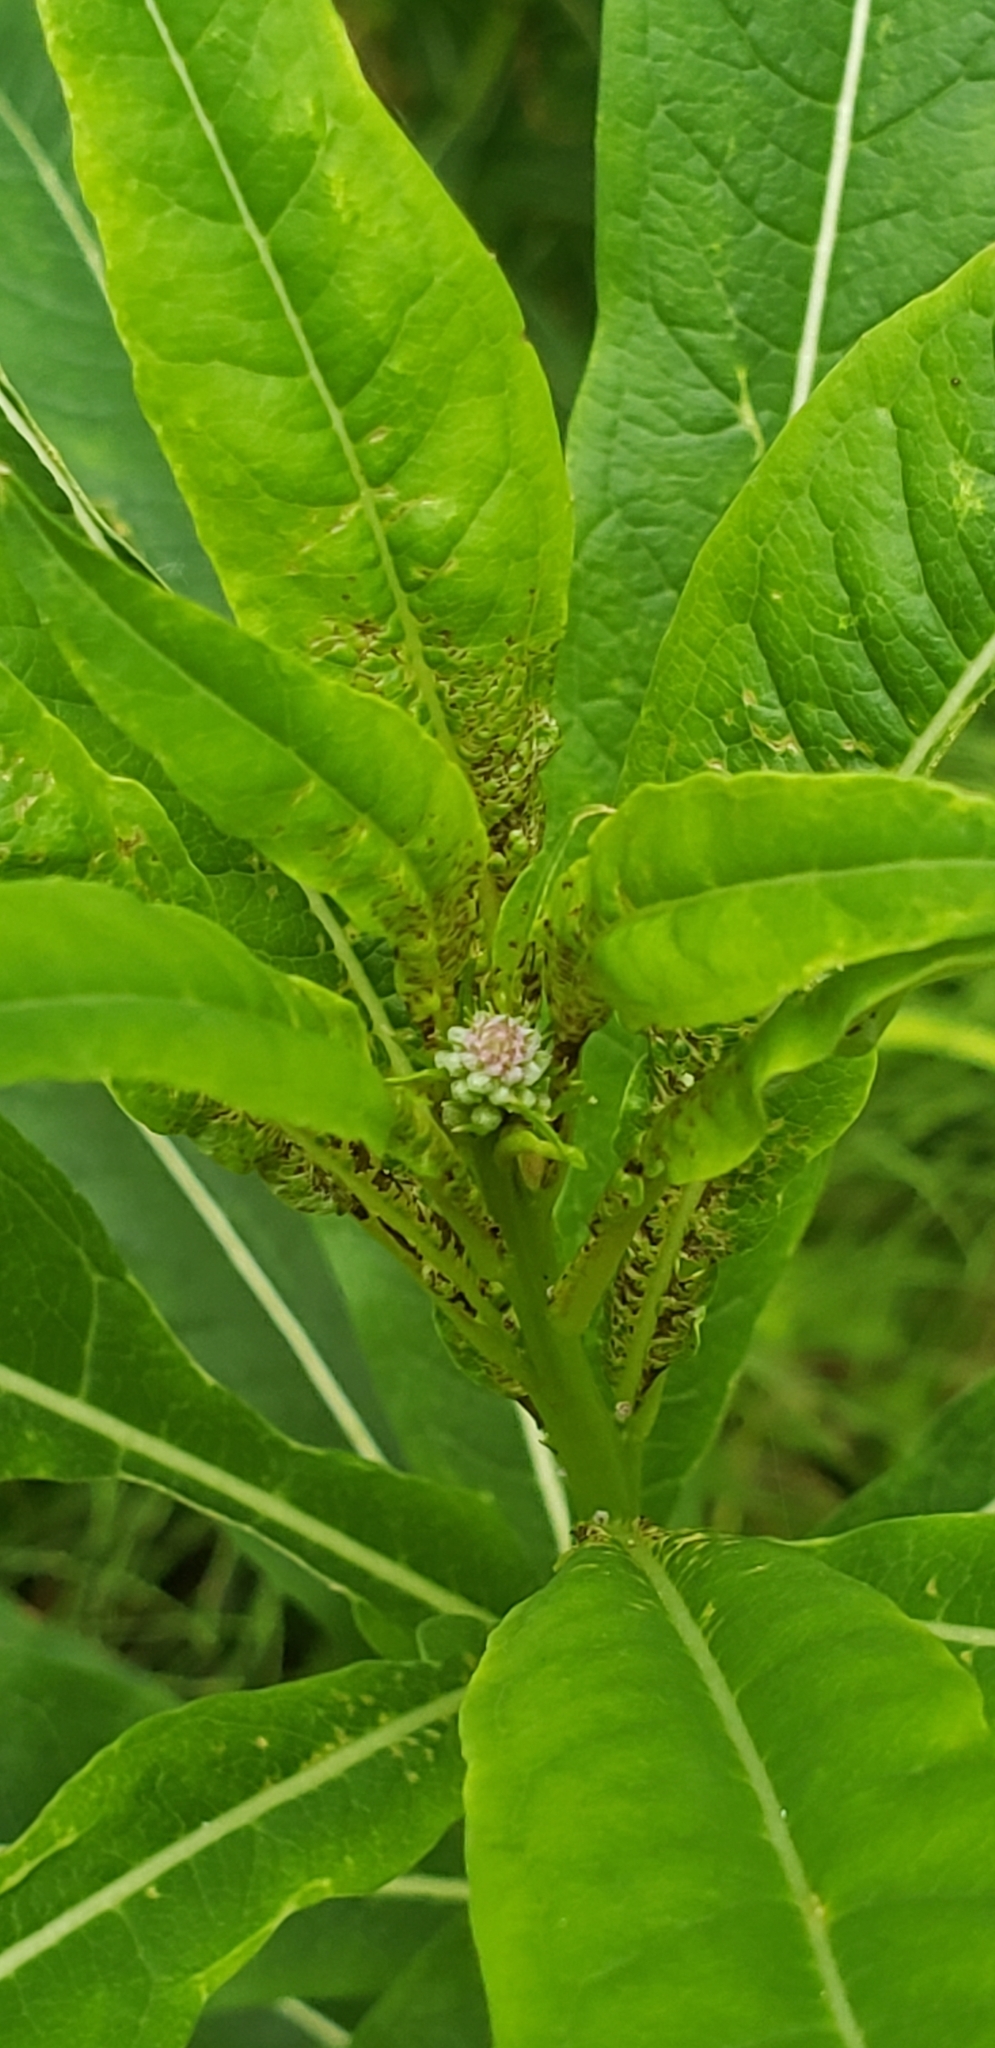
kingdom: Plantae
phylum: Tracheophyta
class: Magnoliopsida
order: Myrtales
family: Onagraceae
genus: Chamaenerion
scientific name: Chamaenerion angustifolium
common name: Fireweed
